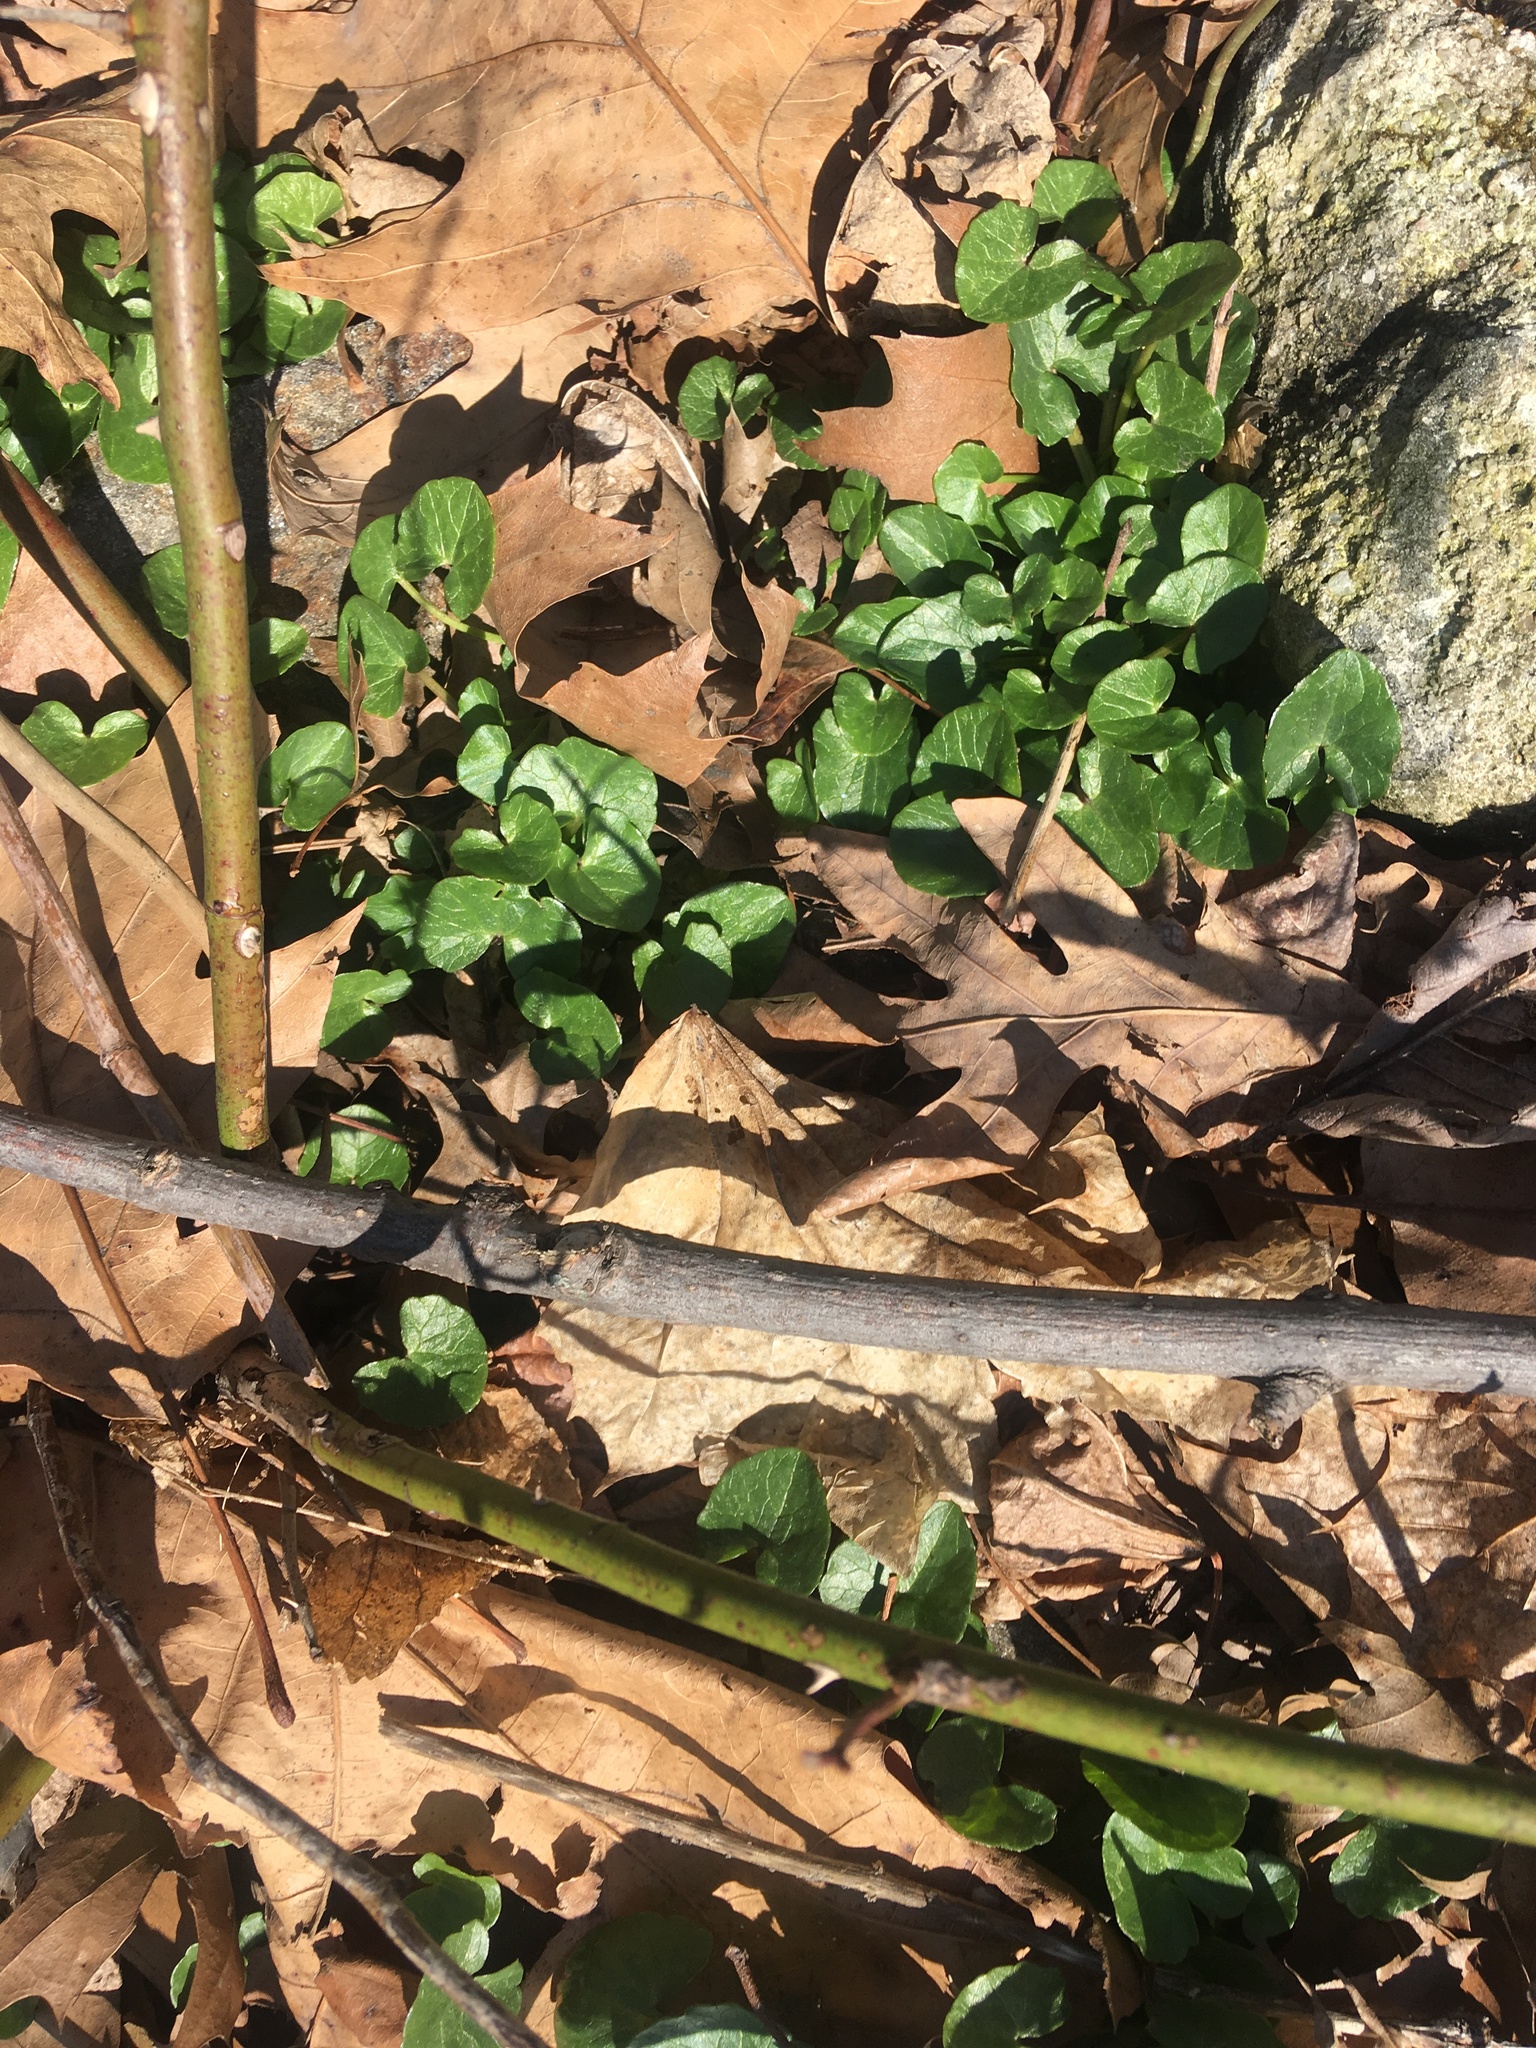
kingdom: Plantae
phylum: Tracheophyta
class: Magnoliopsida
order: Ranunculales
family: Ranunculaceae
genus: Ficaria
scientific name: Ficaria verna
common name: Lesser celandine
